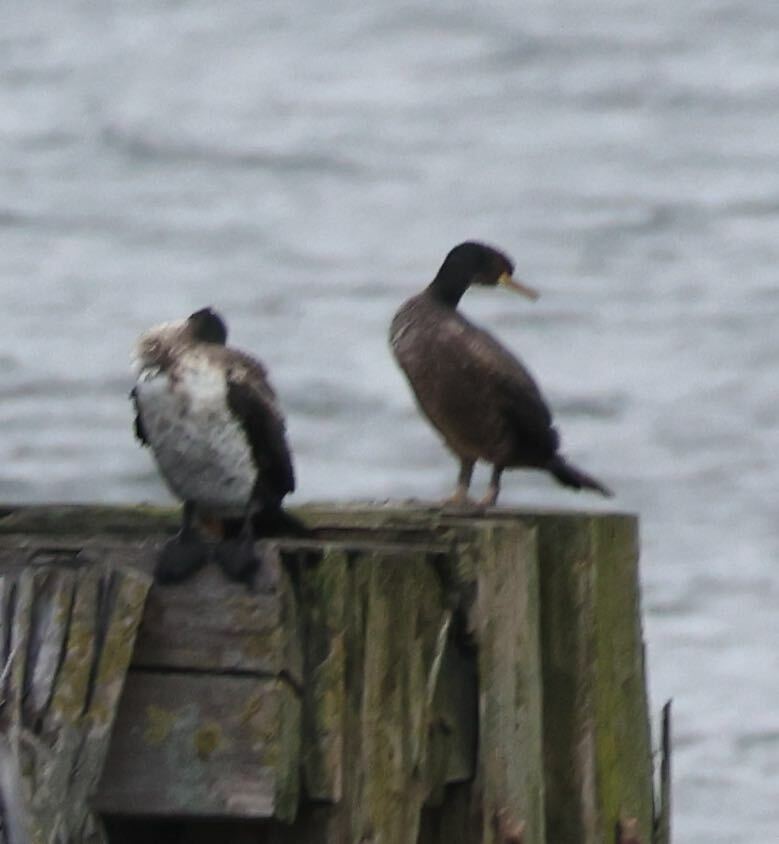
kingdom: Animalia
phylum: Chordata
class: Aves
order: Suliformes
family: Phalacrocoracidae
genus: Phalacrocorax
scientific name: Phalacrocorax aristotelis
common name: European shag
